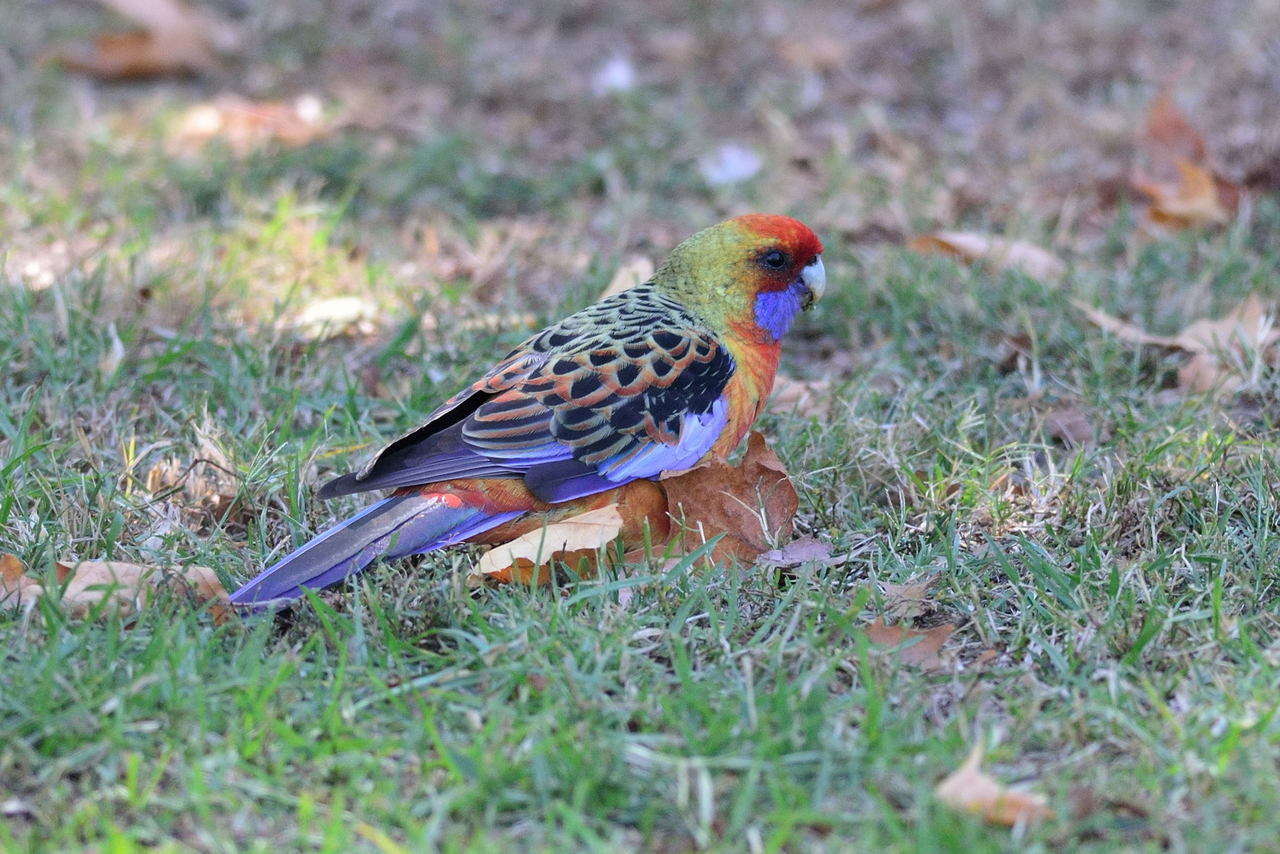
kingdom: Animalia
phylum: Chordata
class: Aves
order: Psittaciformes
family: Psittacidae
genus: Platycercus
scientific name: Platycercus elegans
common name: Crimson rosella
